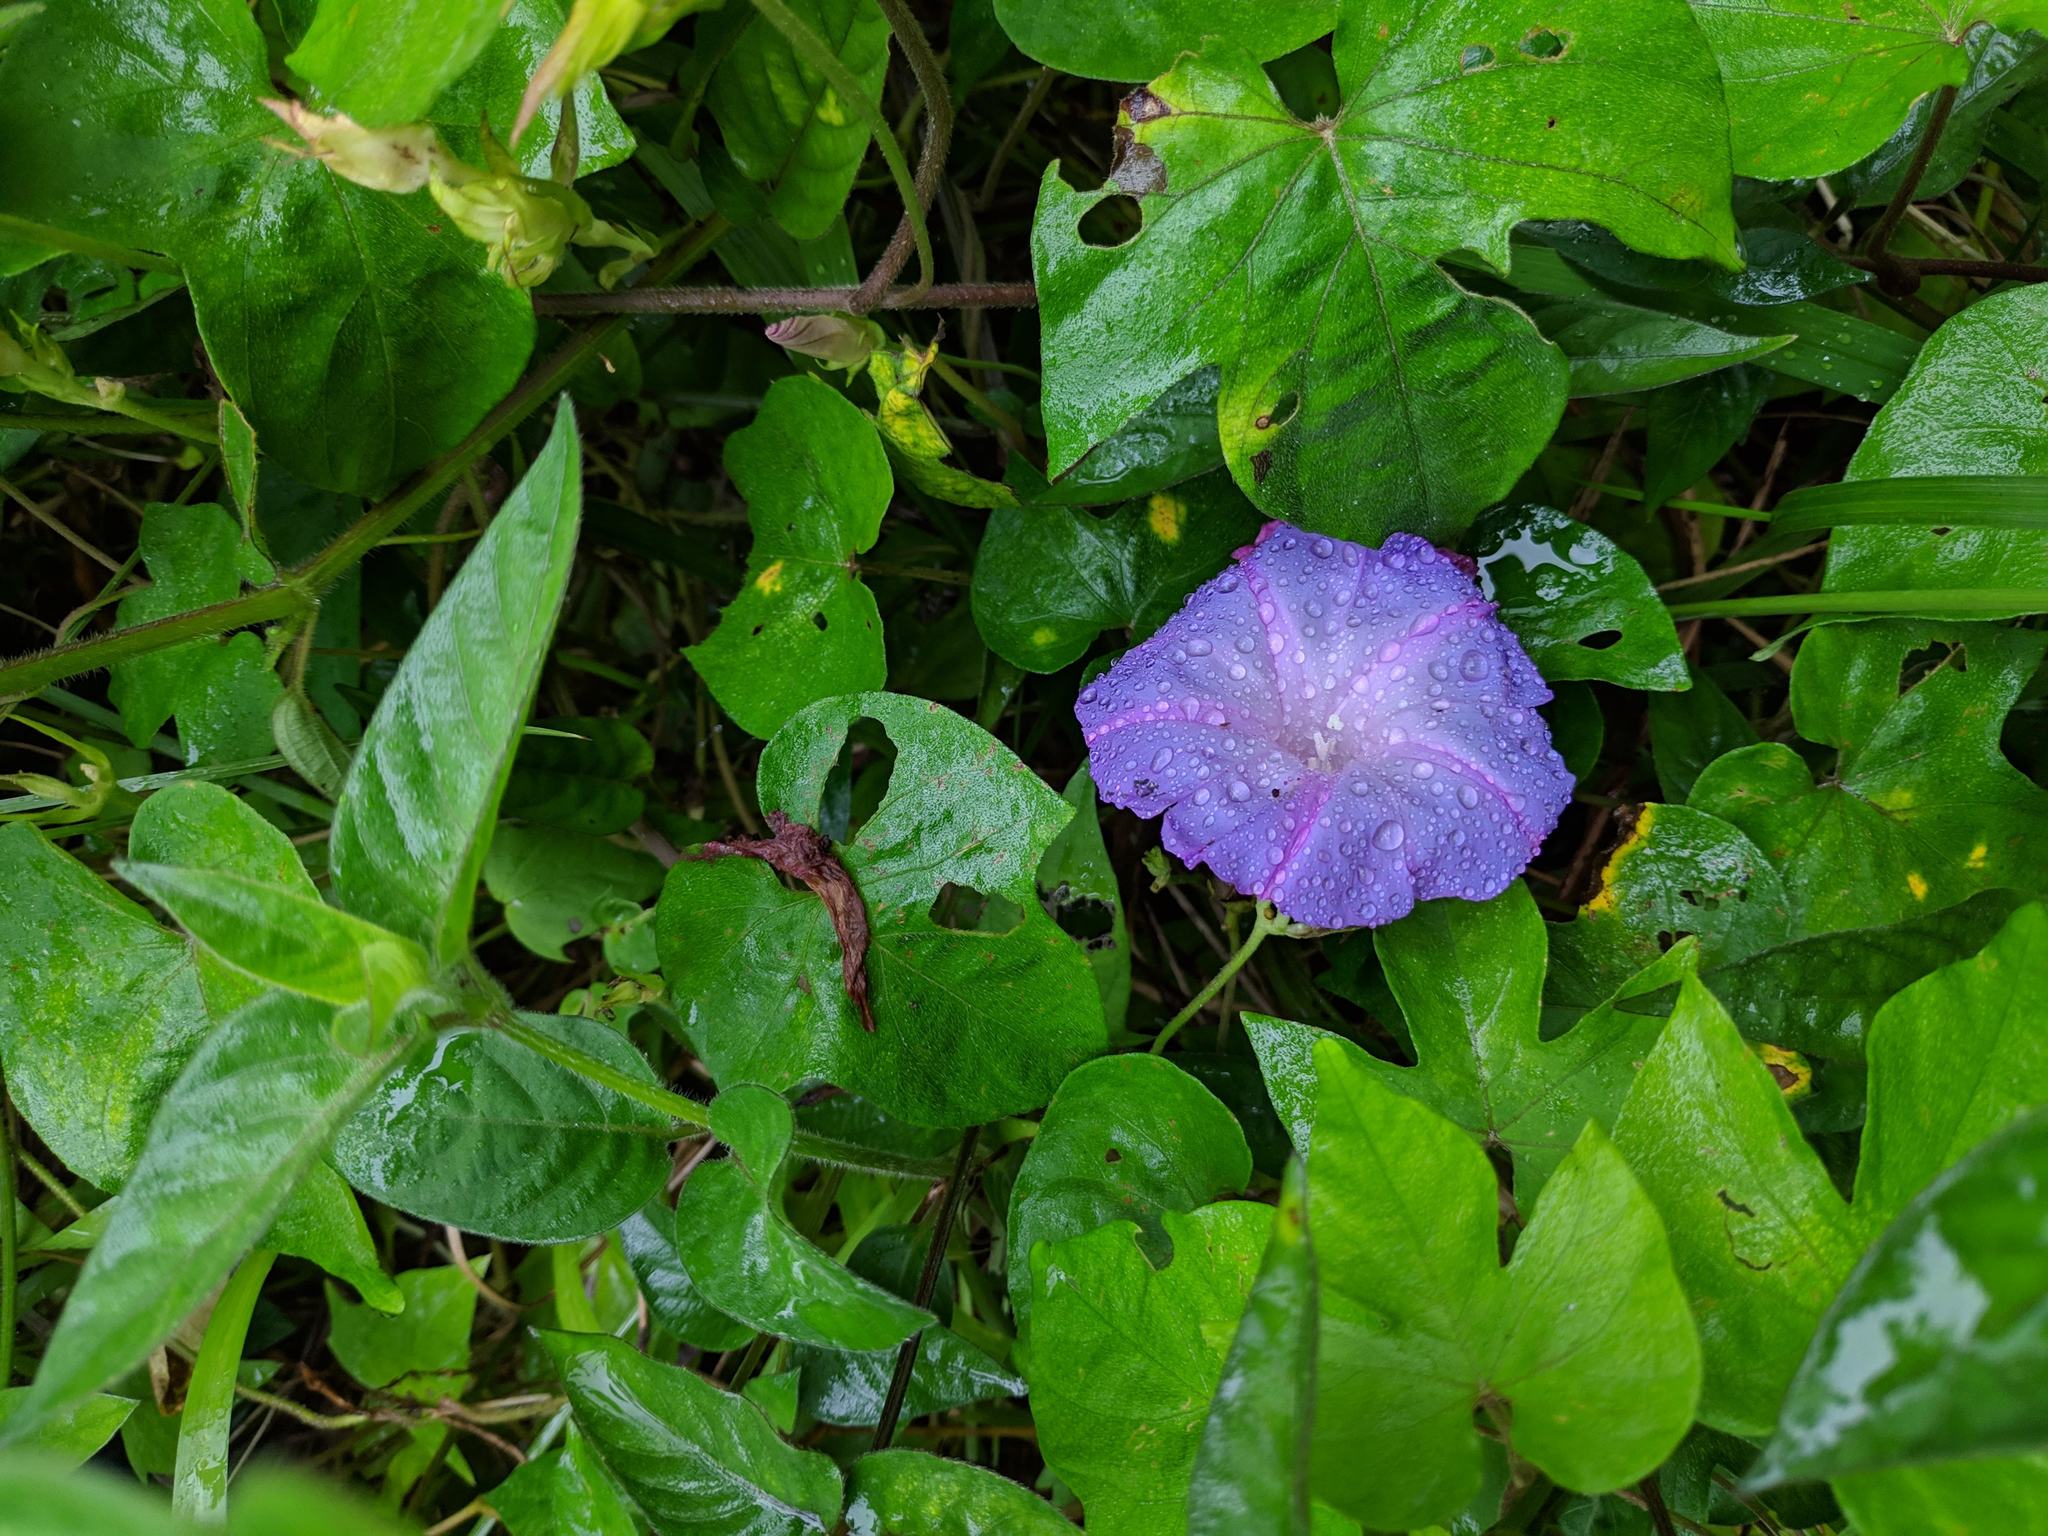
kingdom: Plantae
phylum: Tracheophyta
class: Magnoliopsida
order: Fabales
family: Fabaceae
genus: Mimosa
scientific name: Mimosa pudica
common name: Sensitive plant
